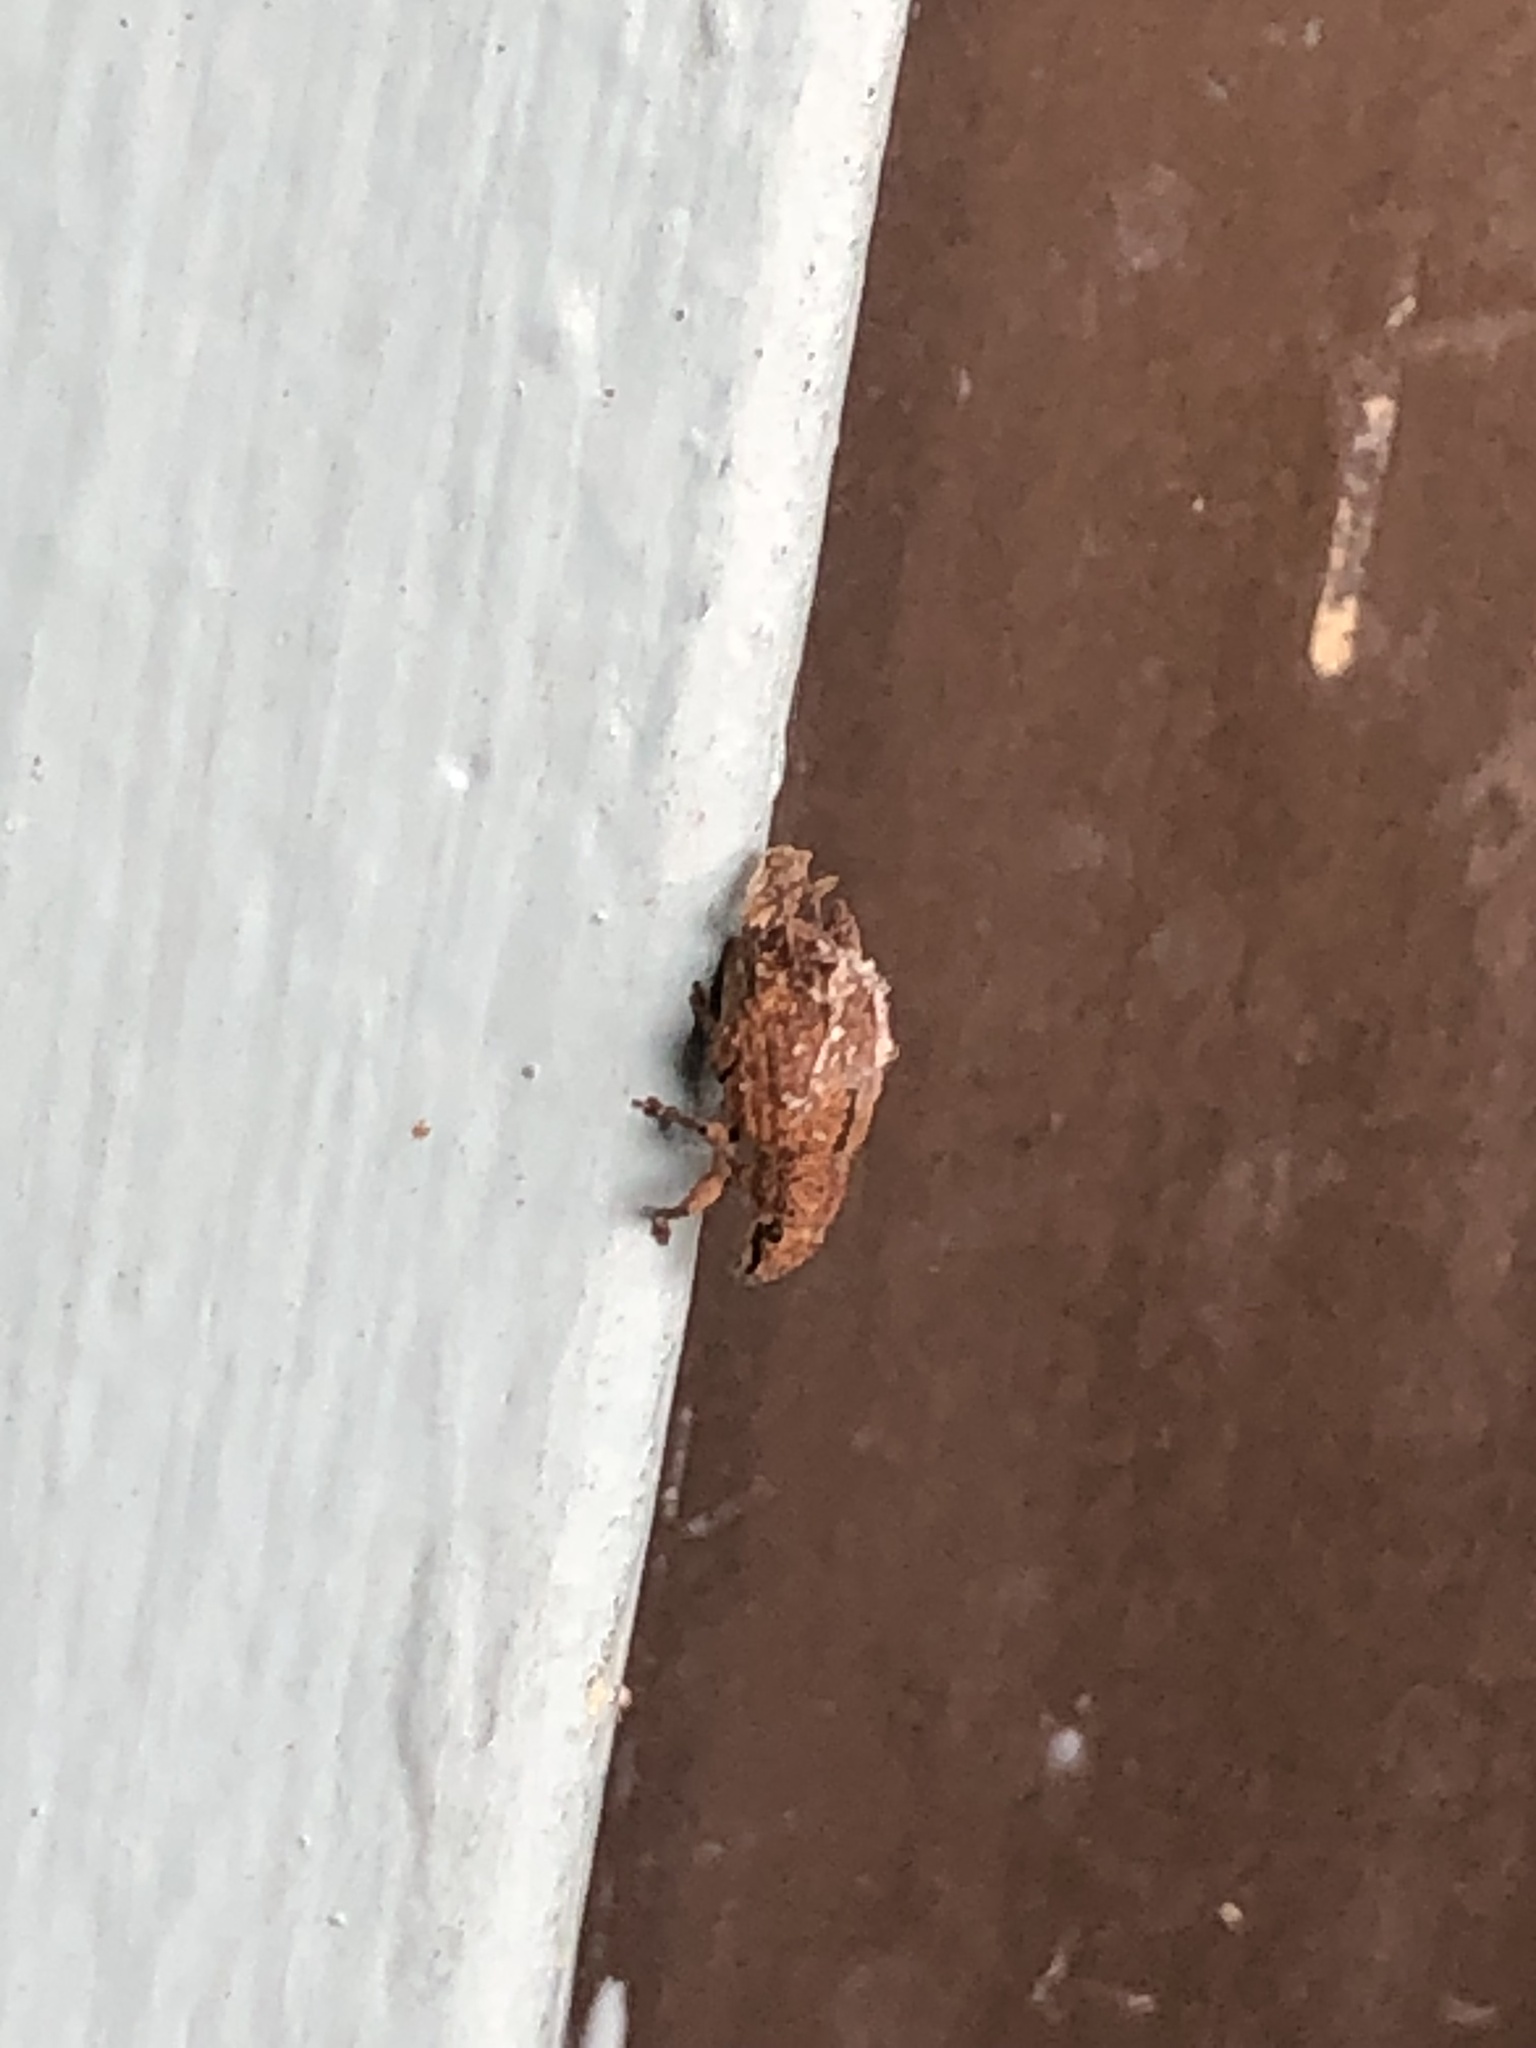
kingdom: Animalia
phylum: Arthropoda
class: Insecta
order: Coleoptera
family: Curculionidae
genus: Strophosoma
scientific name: Strophosoma melanogrammum
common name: Weevil
